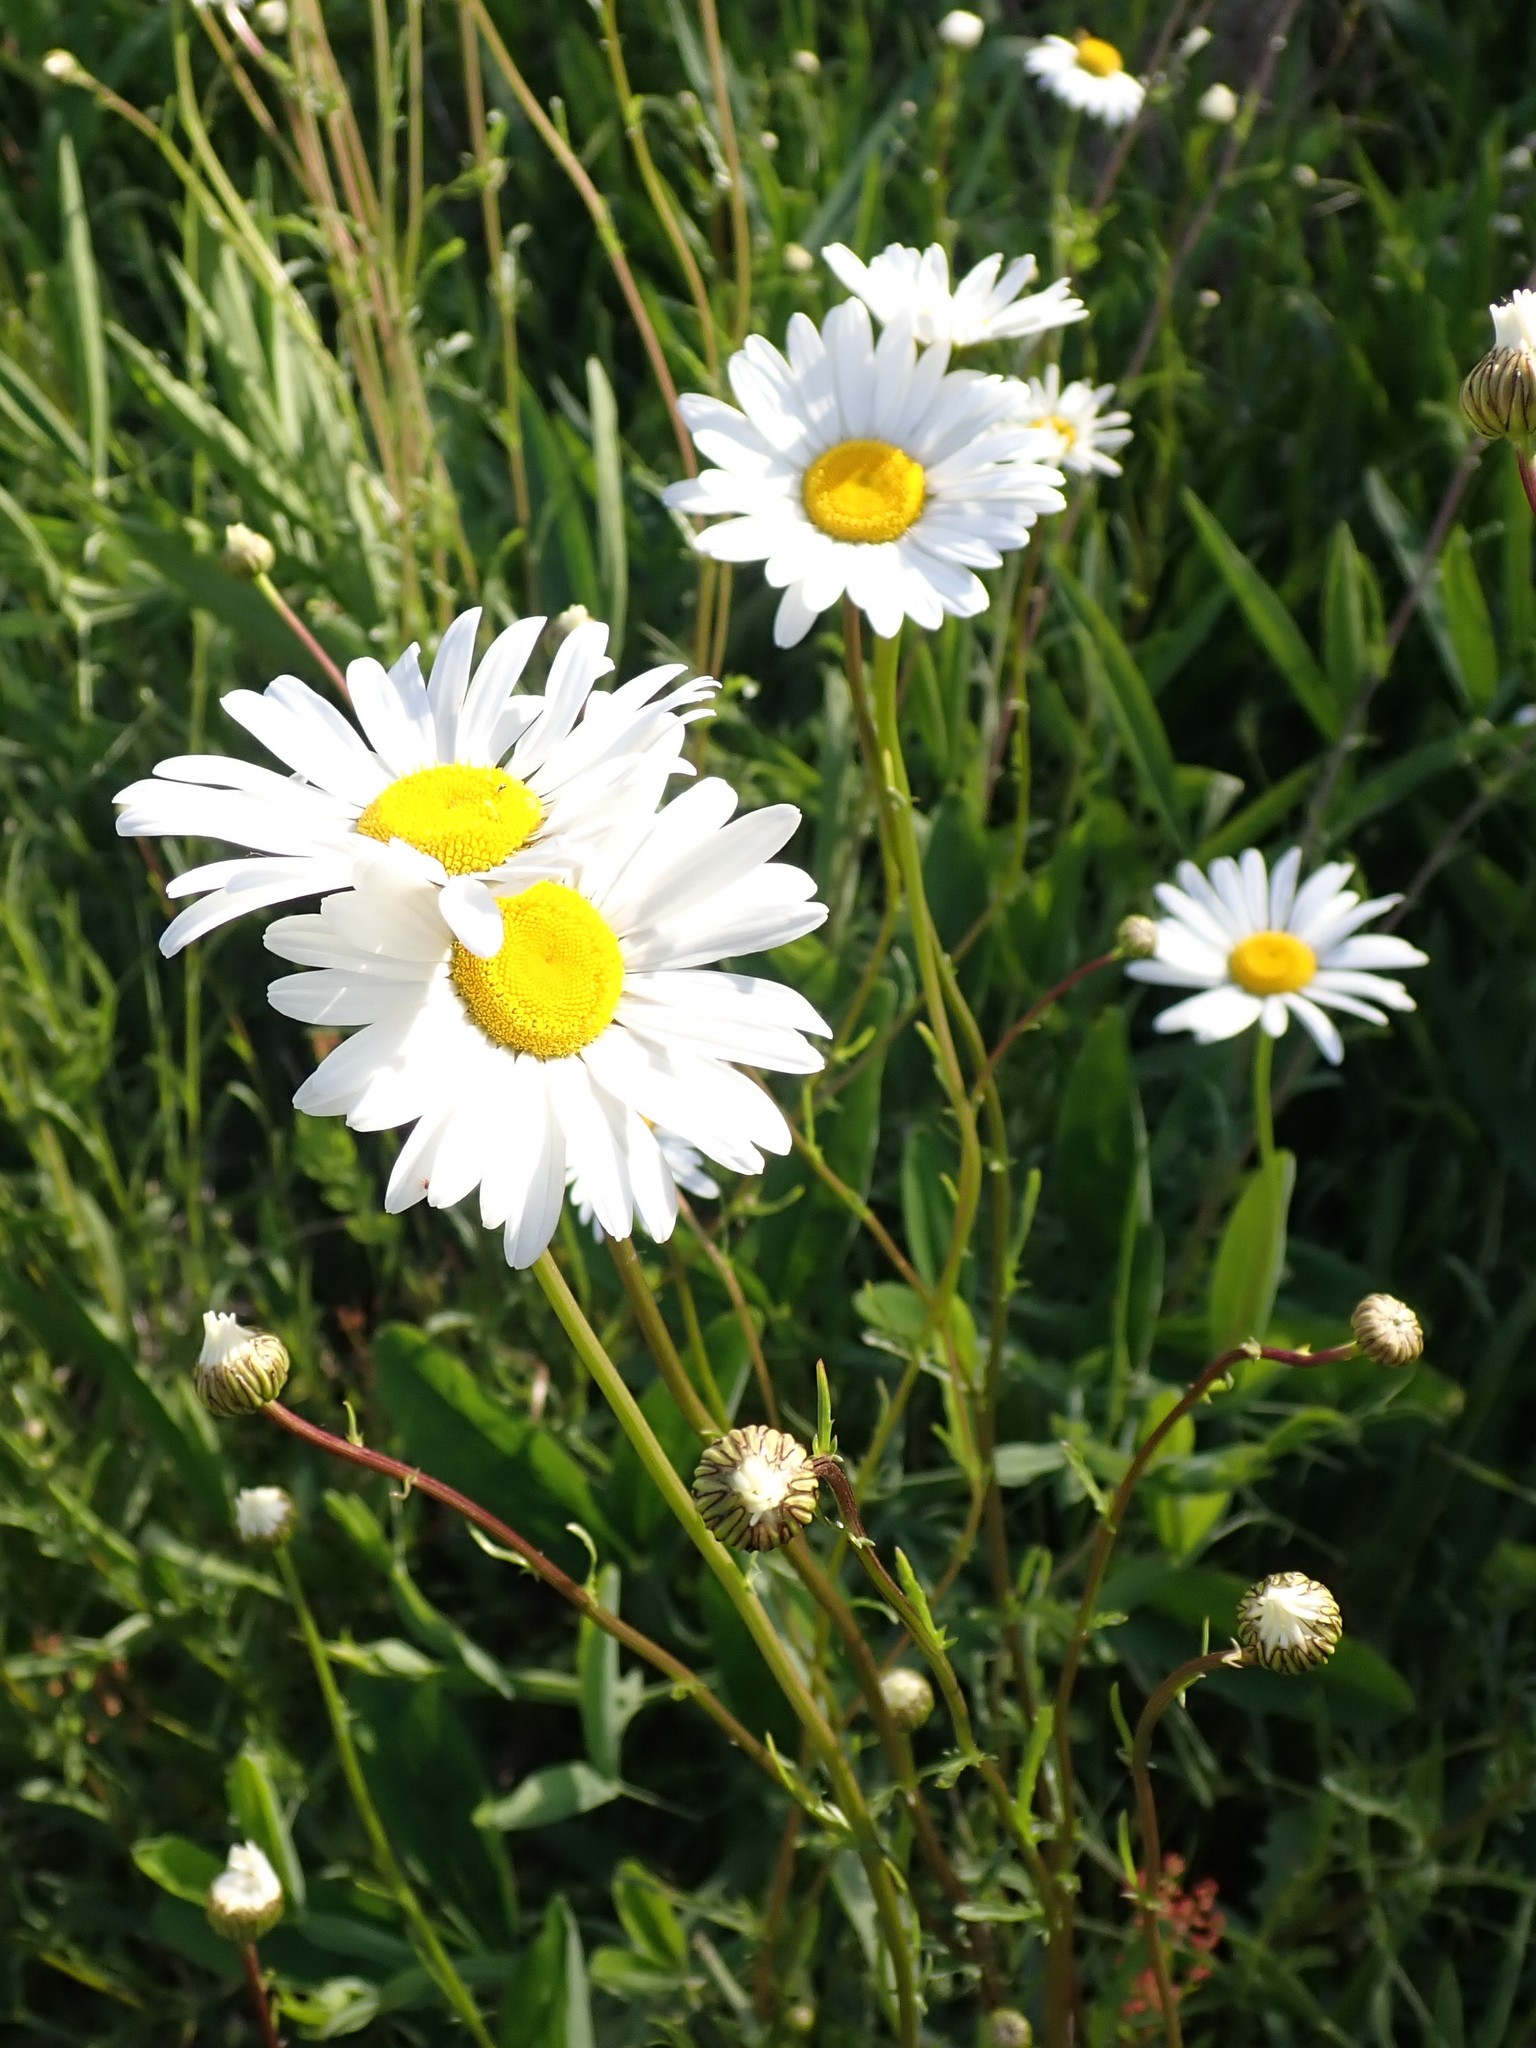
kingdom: Plantae
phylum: Tracheophyta
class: Magnoliopsida
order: Asterales
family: Asteraceae
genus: Leucanthemum
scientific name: Leucanthemum vulgare
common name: Oxeye daisy
